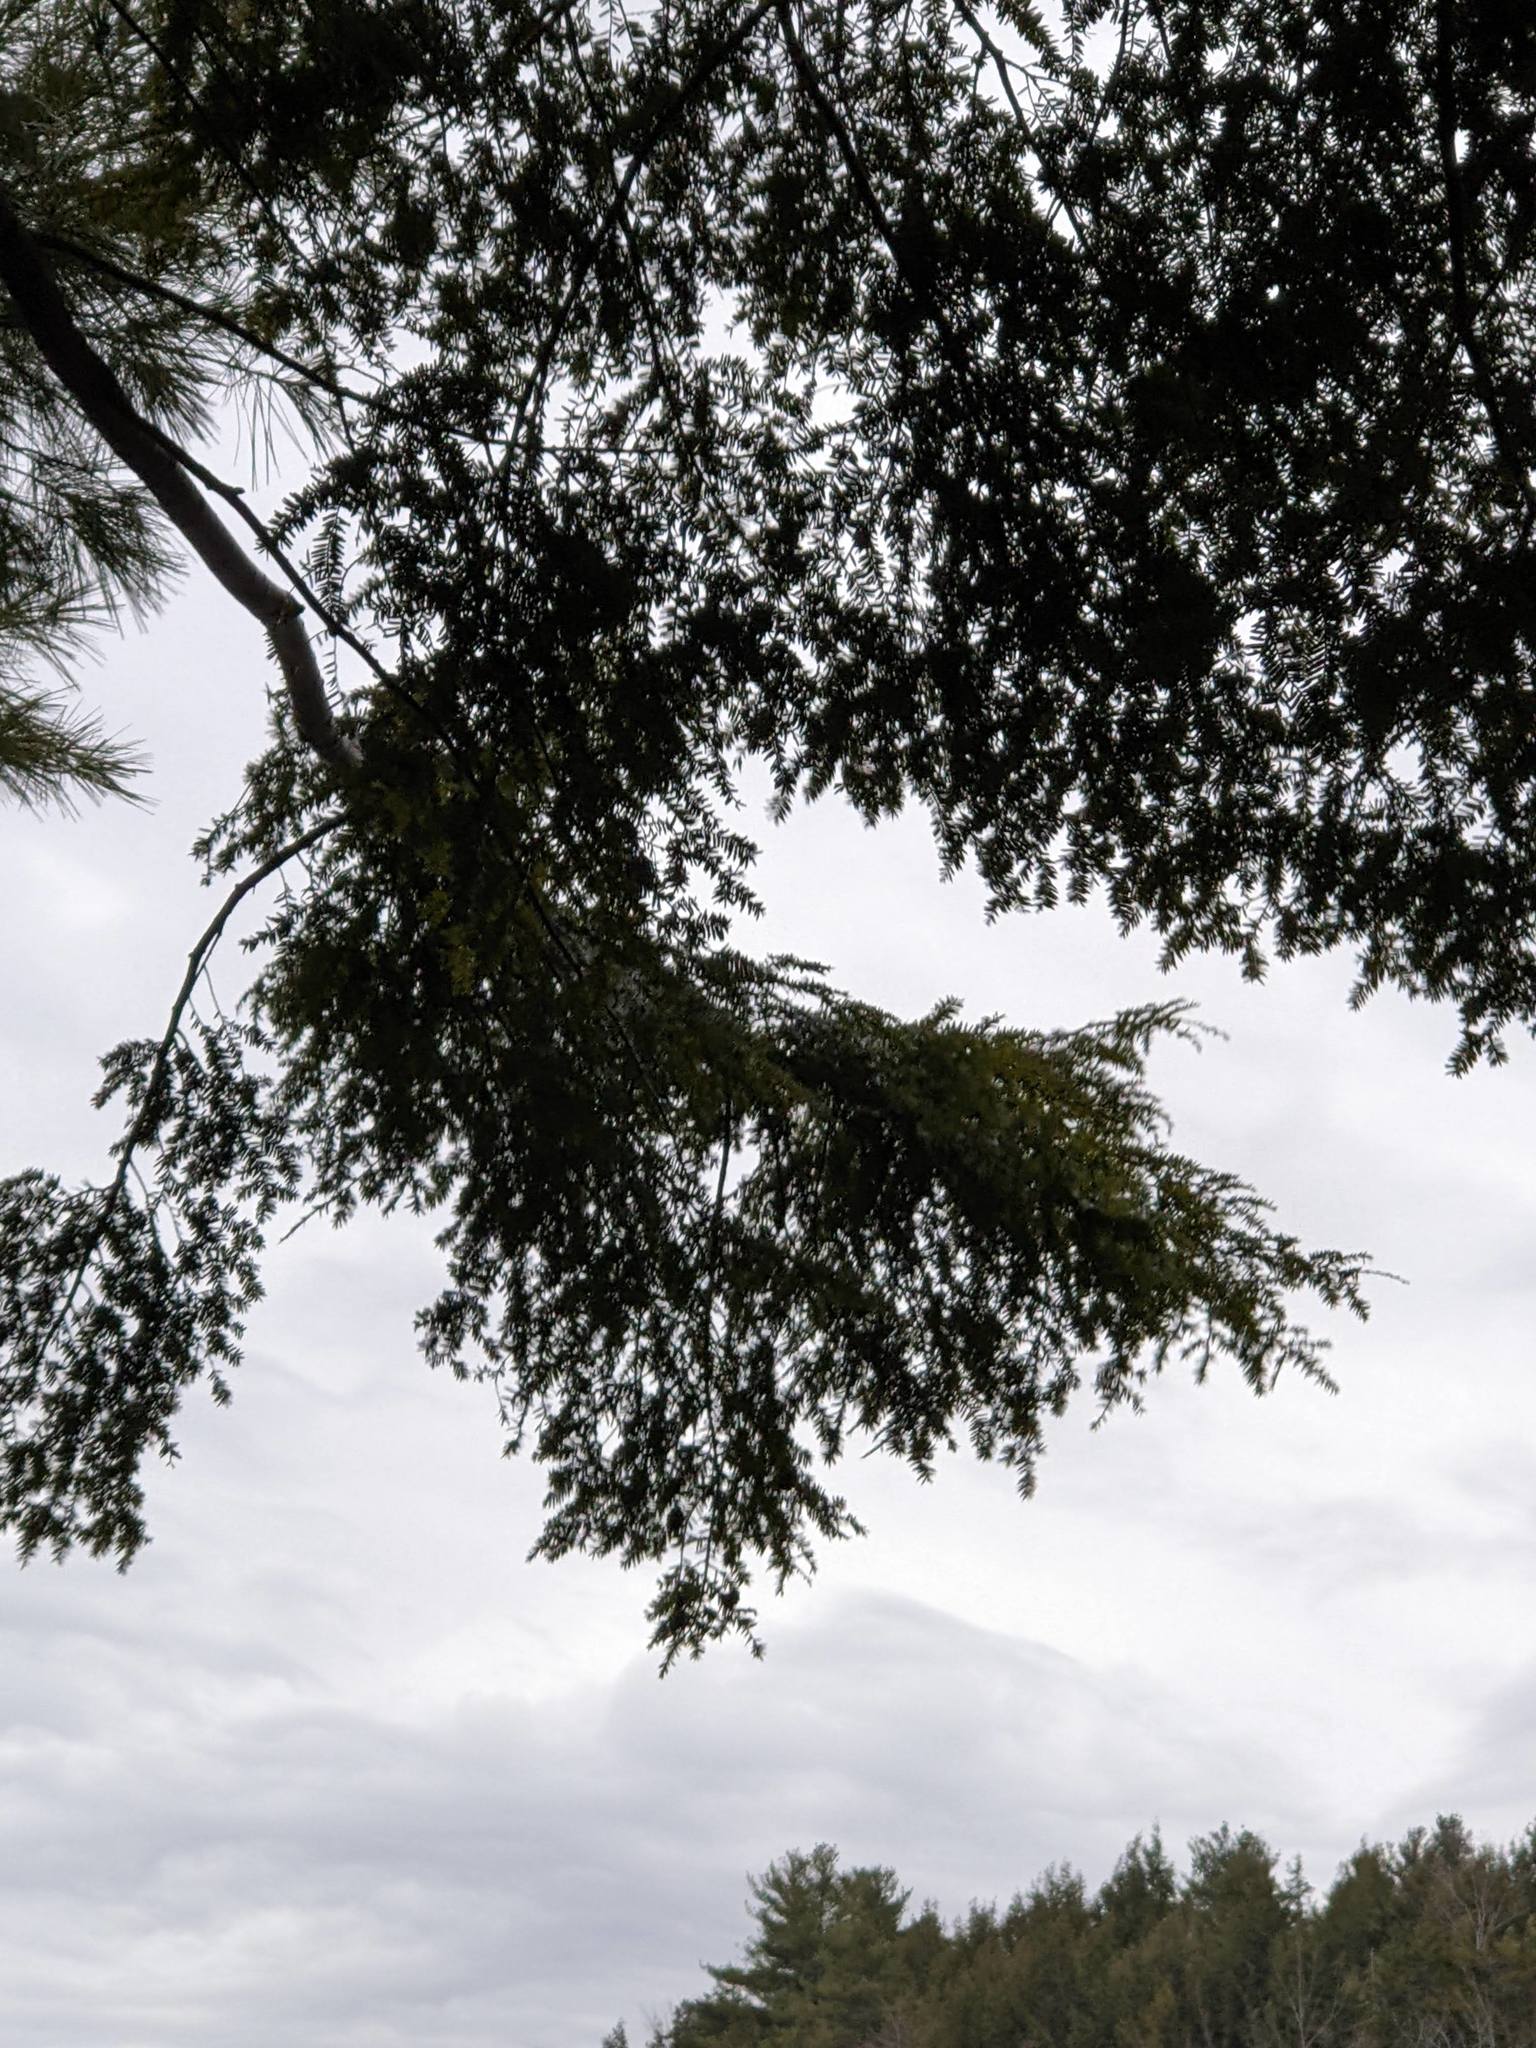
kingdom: Plantae
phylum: Tracheophyta
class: Pinopsida
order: Pinales
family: Pinaceae
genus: Tsuga
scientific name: Tsuga canadensis
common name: Eastern hemlock
